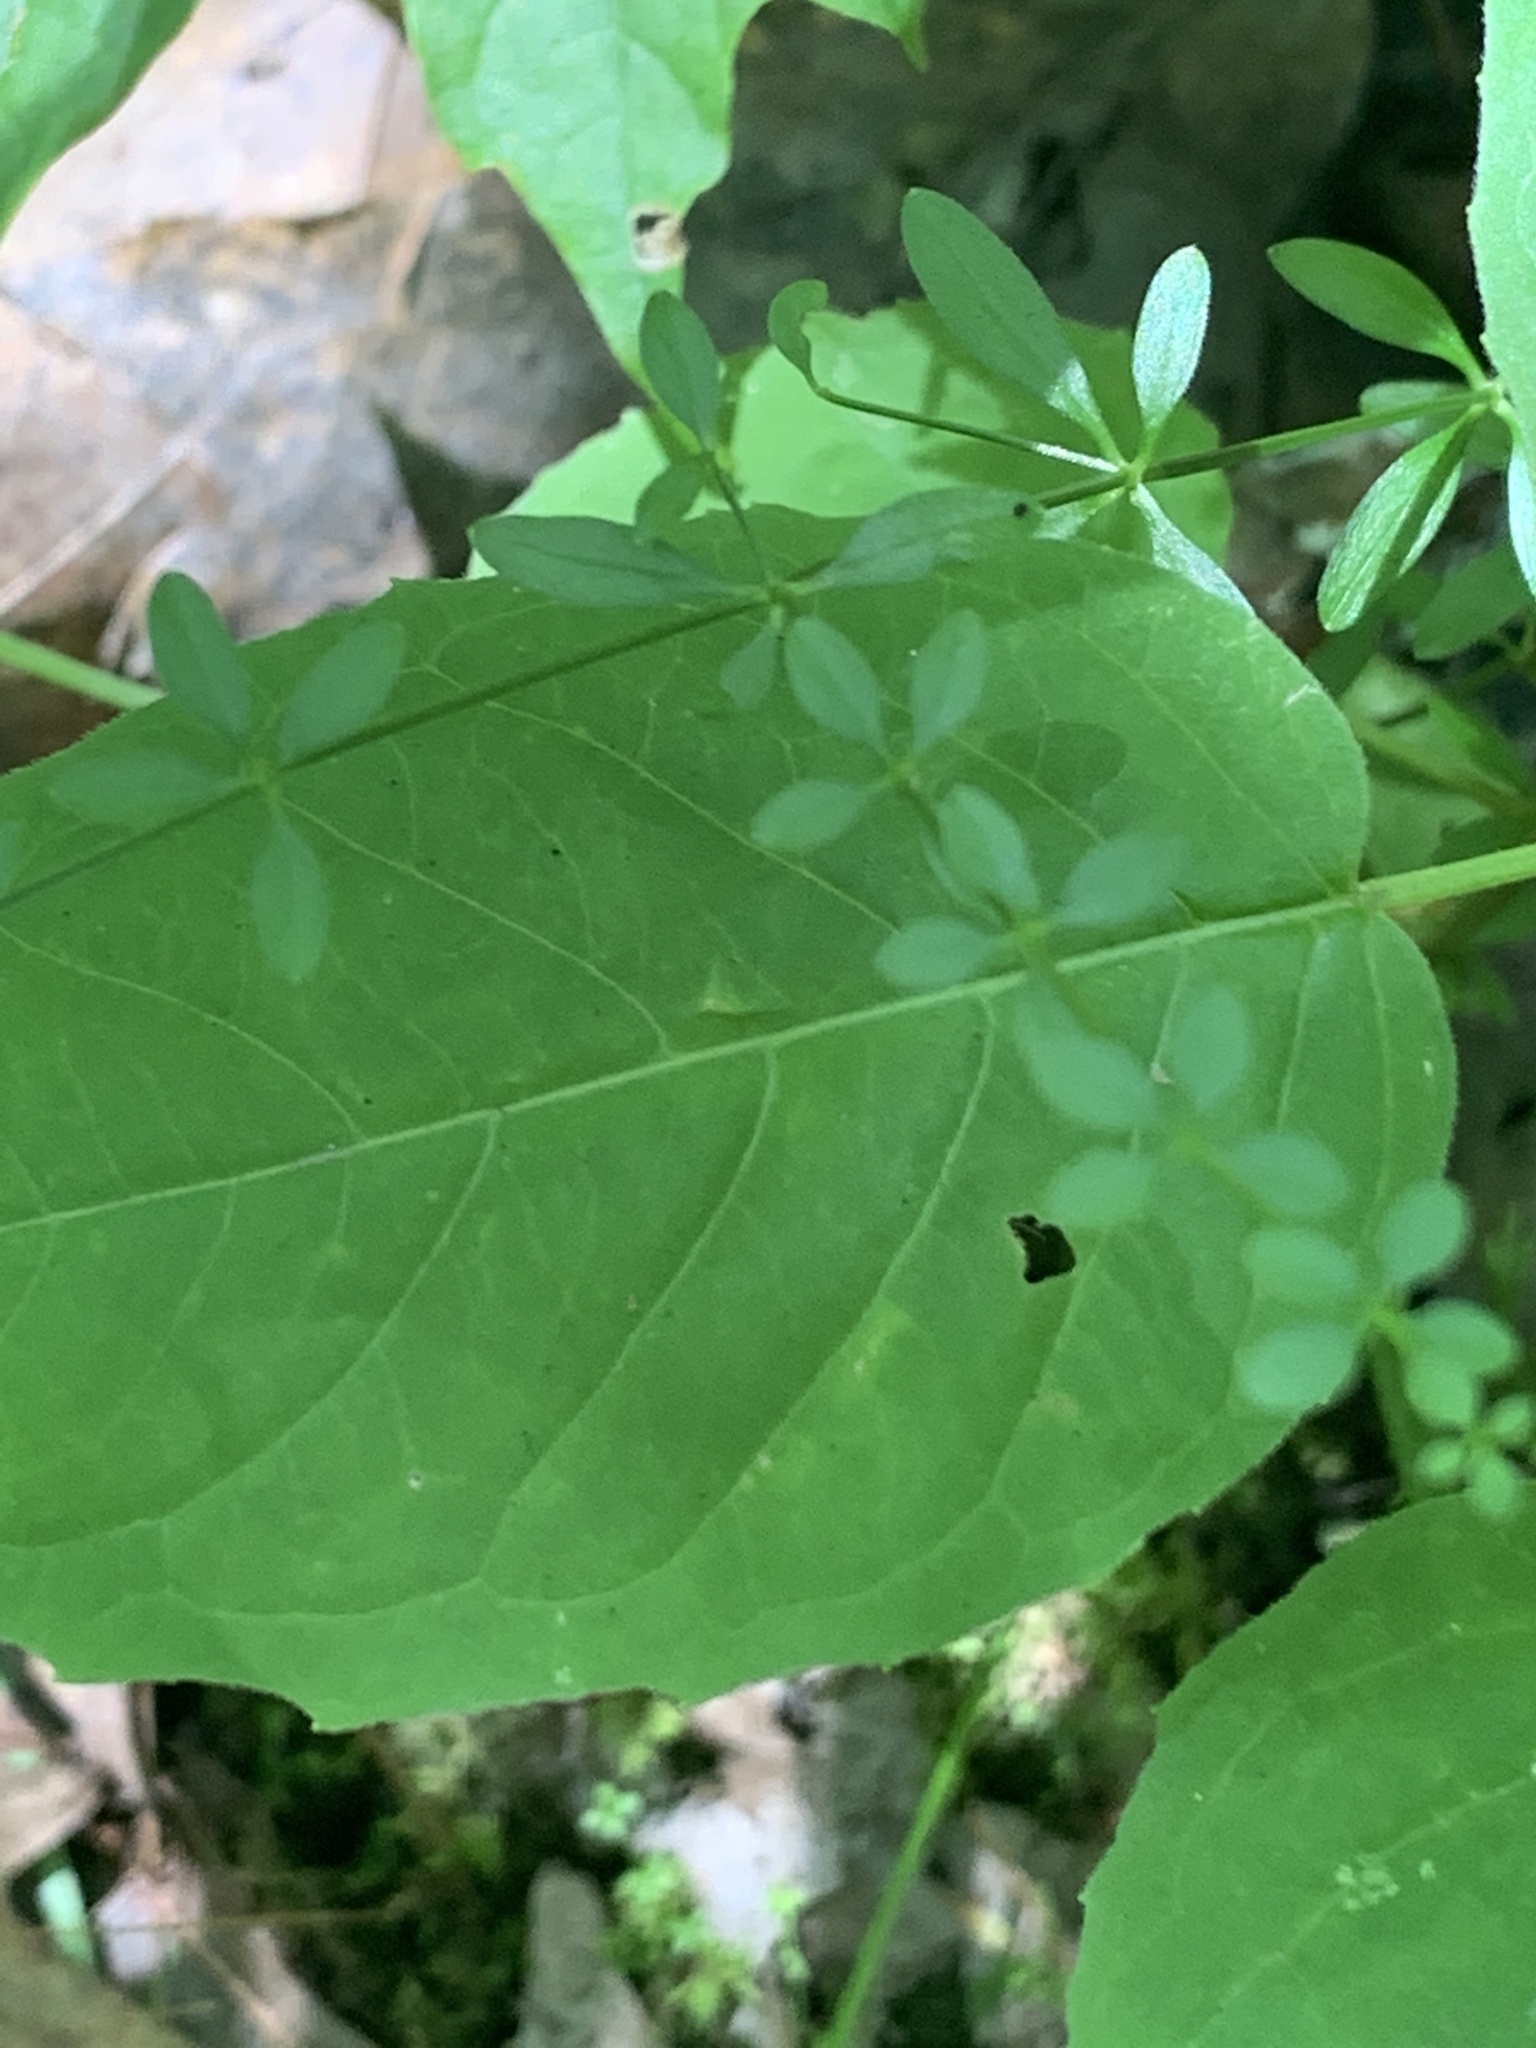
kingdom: Plantae
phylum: Tracheophyta
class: Magnoliopsida
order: Gentianales
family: Rubiaceae
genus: Galium
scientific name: Galium palustre
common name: Common marsh-bedstraw
